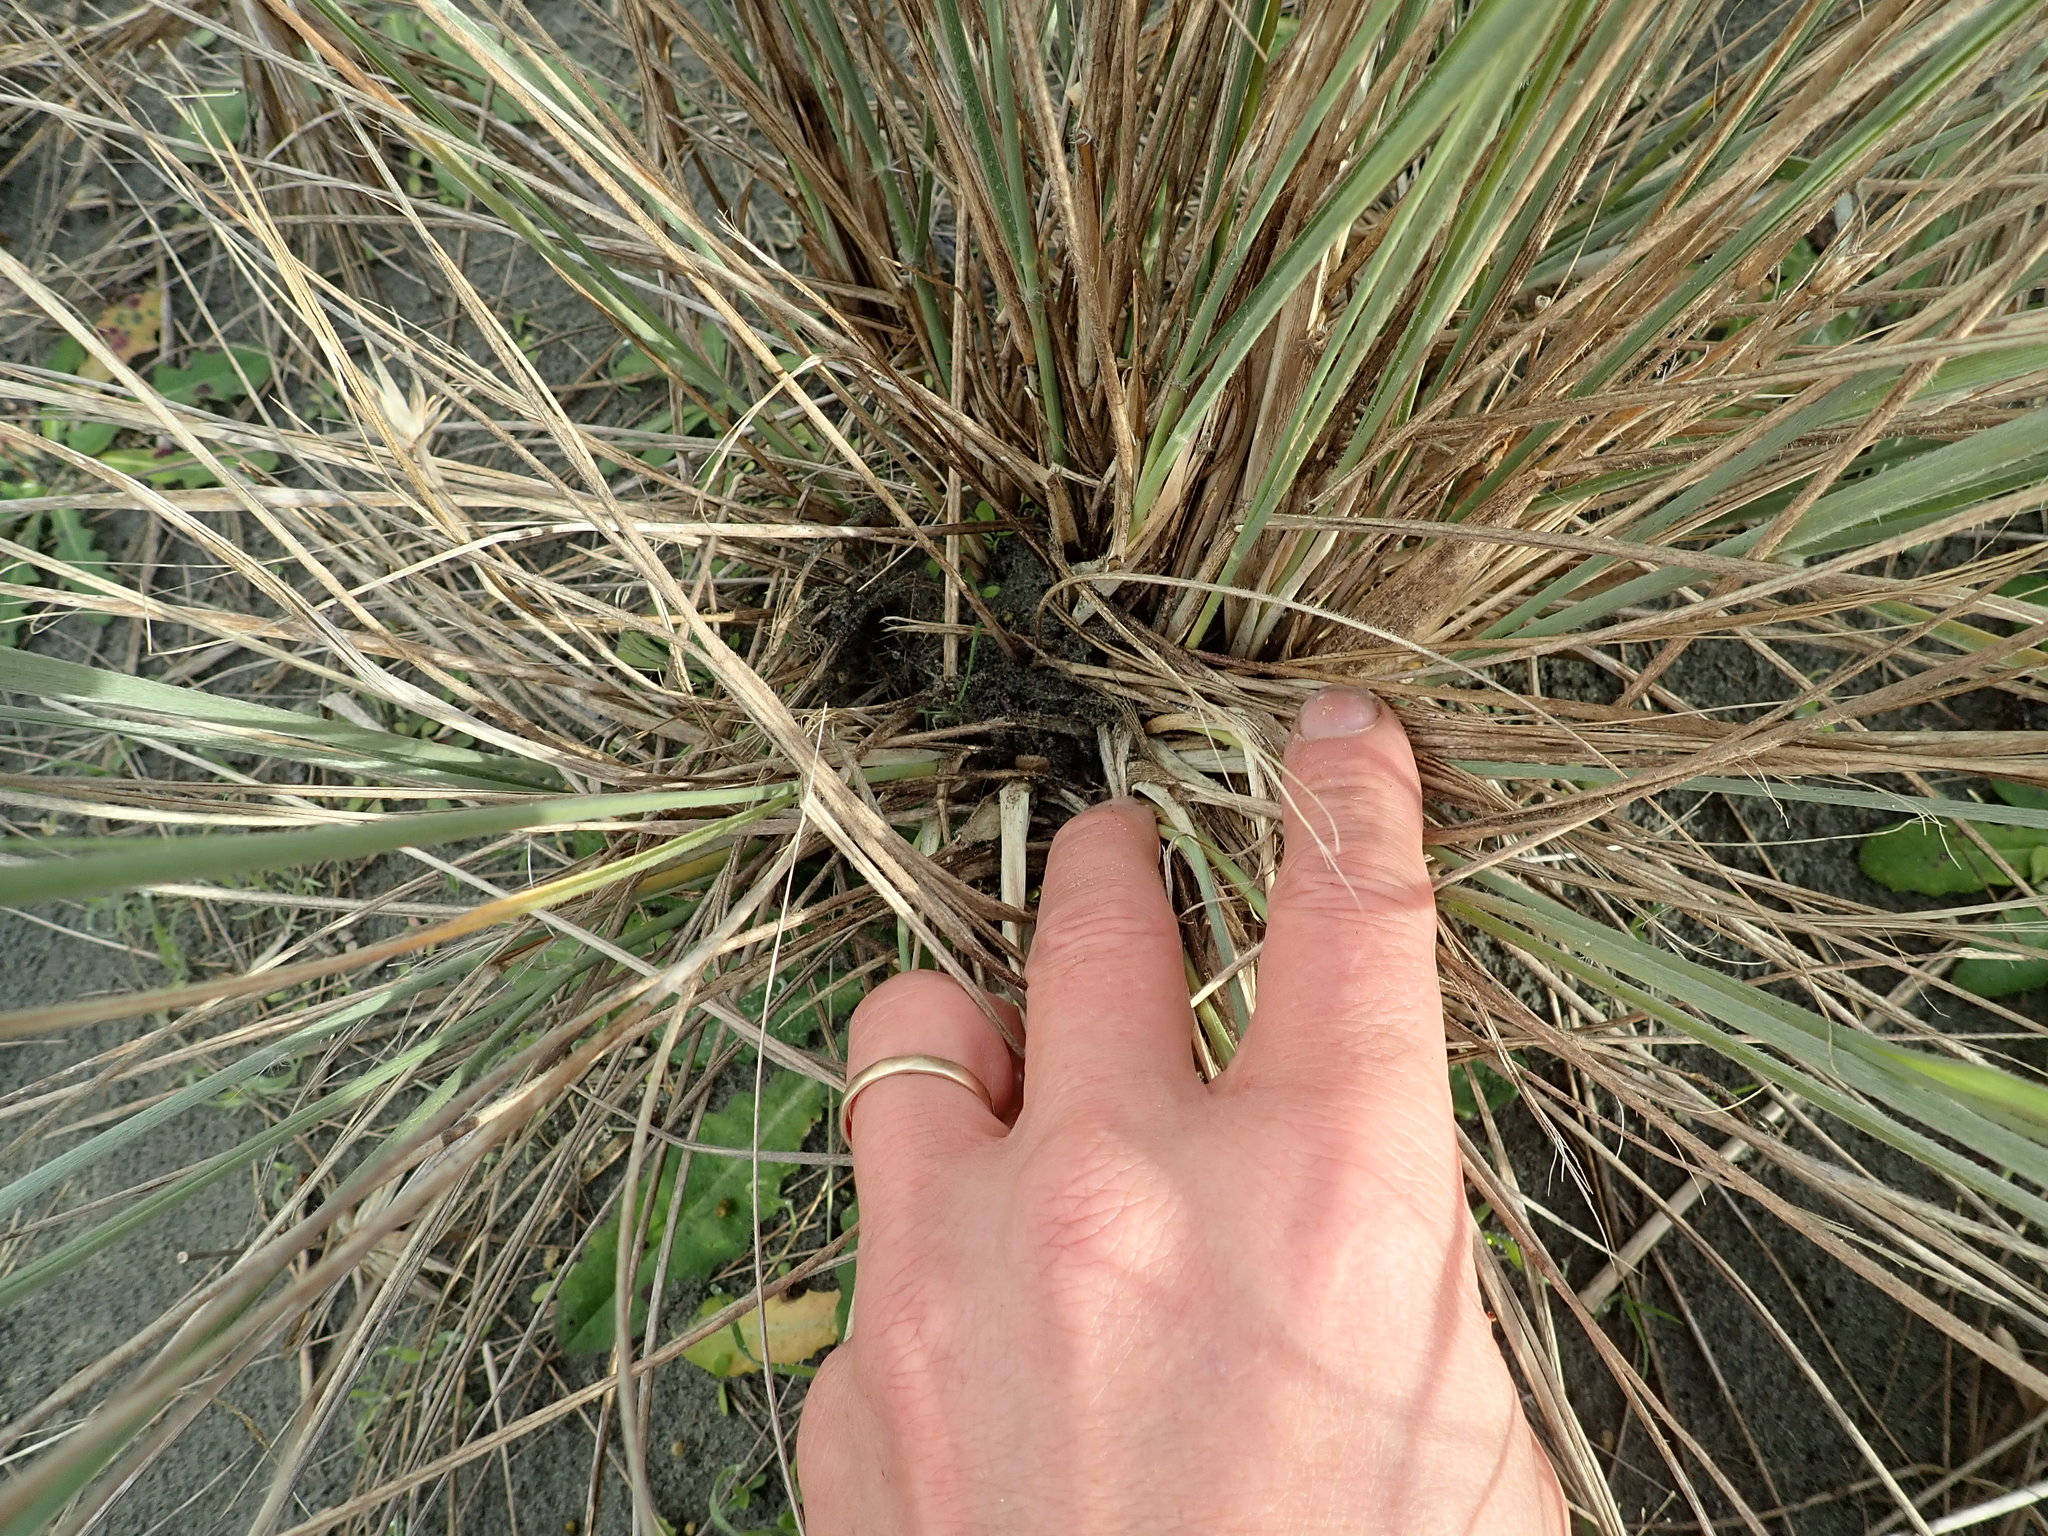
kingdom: Animalia
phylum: Arthropoda
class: Arachnida
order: Araneae
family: Theridiidae
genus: Latrodectus
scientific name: Latrodectus katipo
